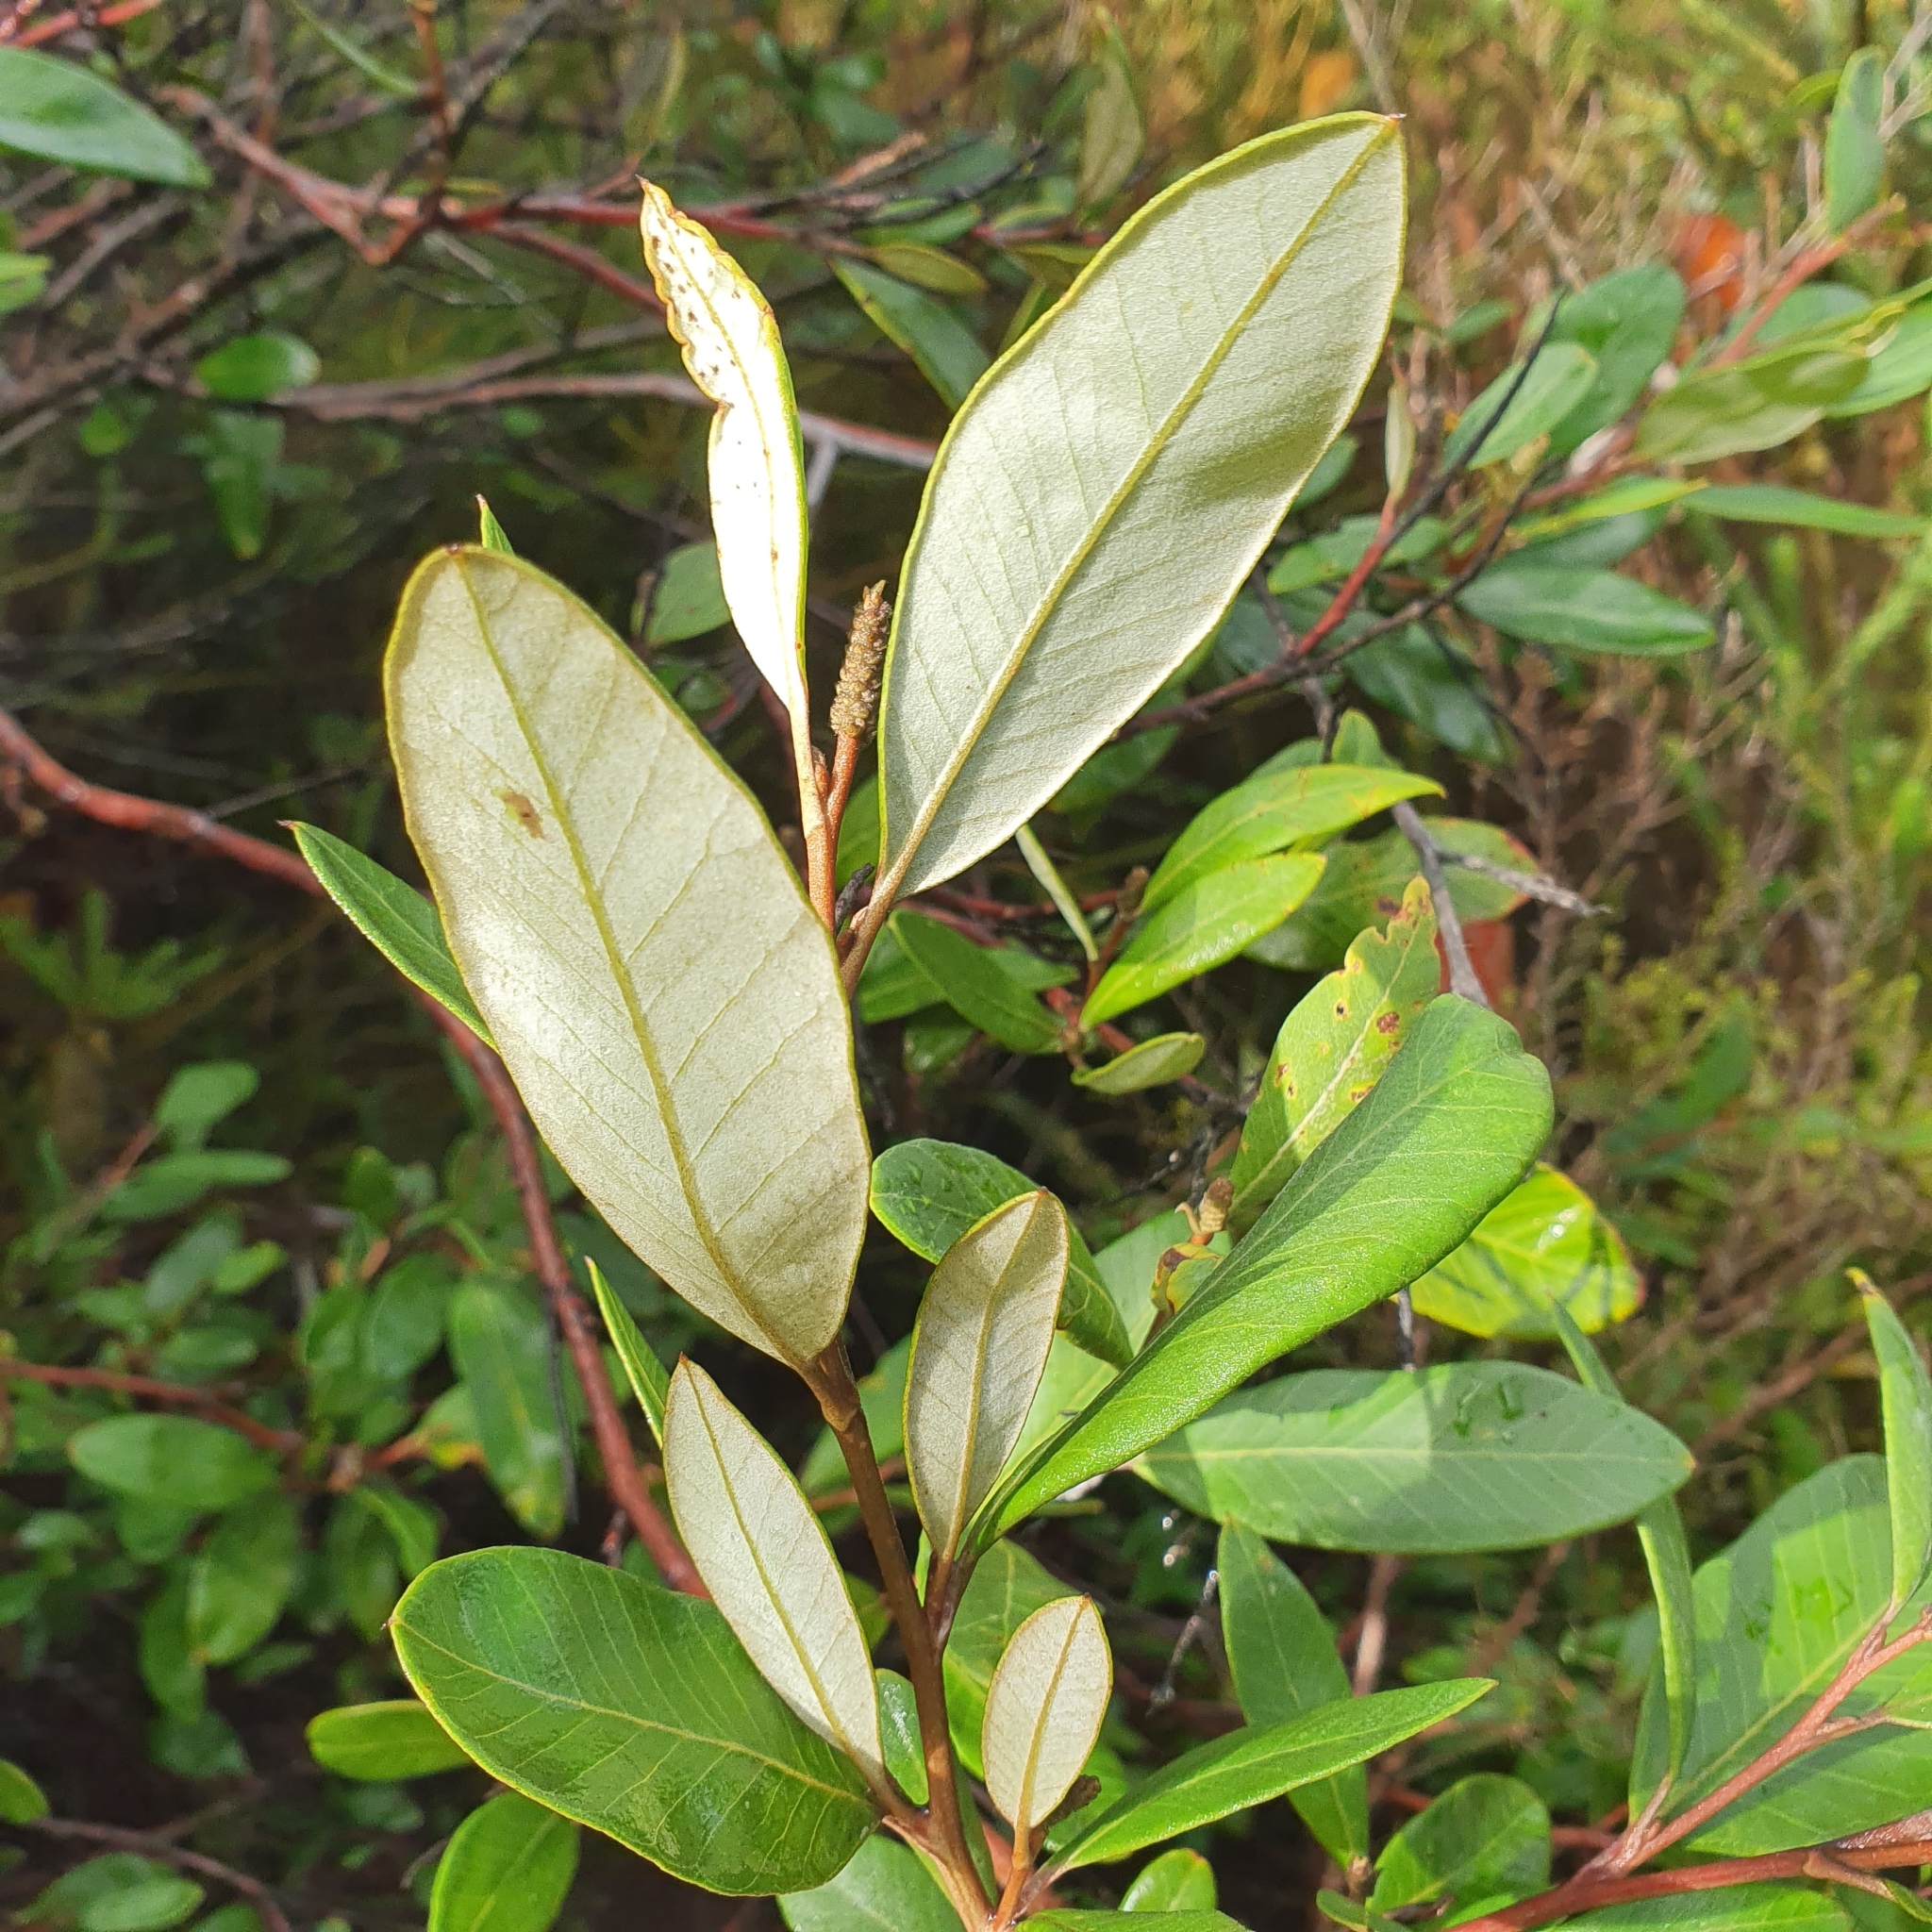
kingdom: Plantae
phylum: Tracheophyta
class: Magnoliopsida
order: Proteales
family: Proteaceae
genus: Grevillea
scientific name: Grevillea macleayana
